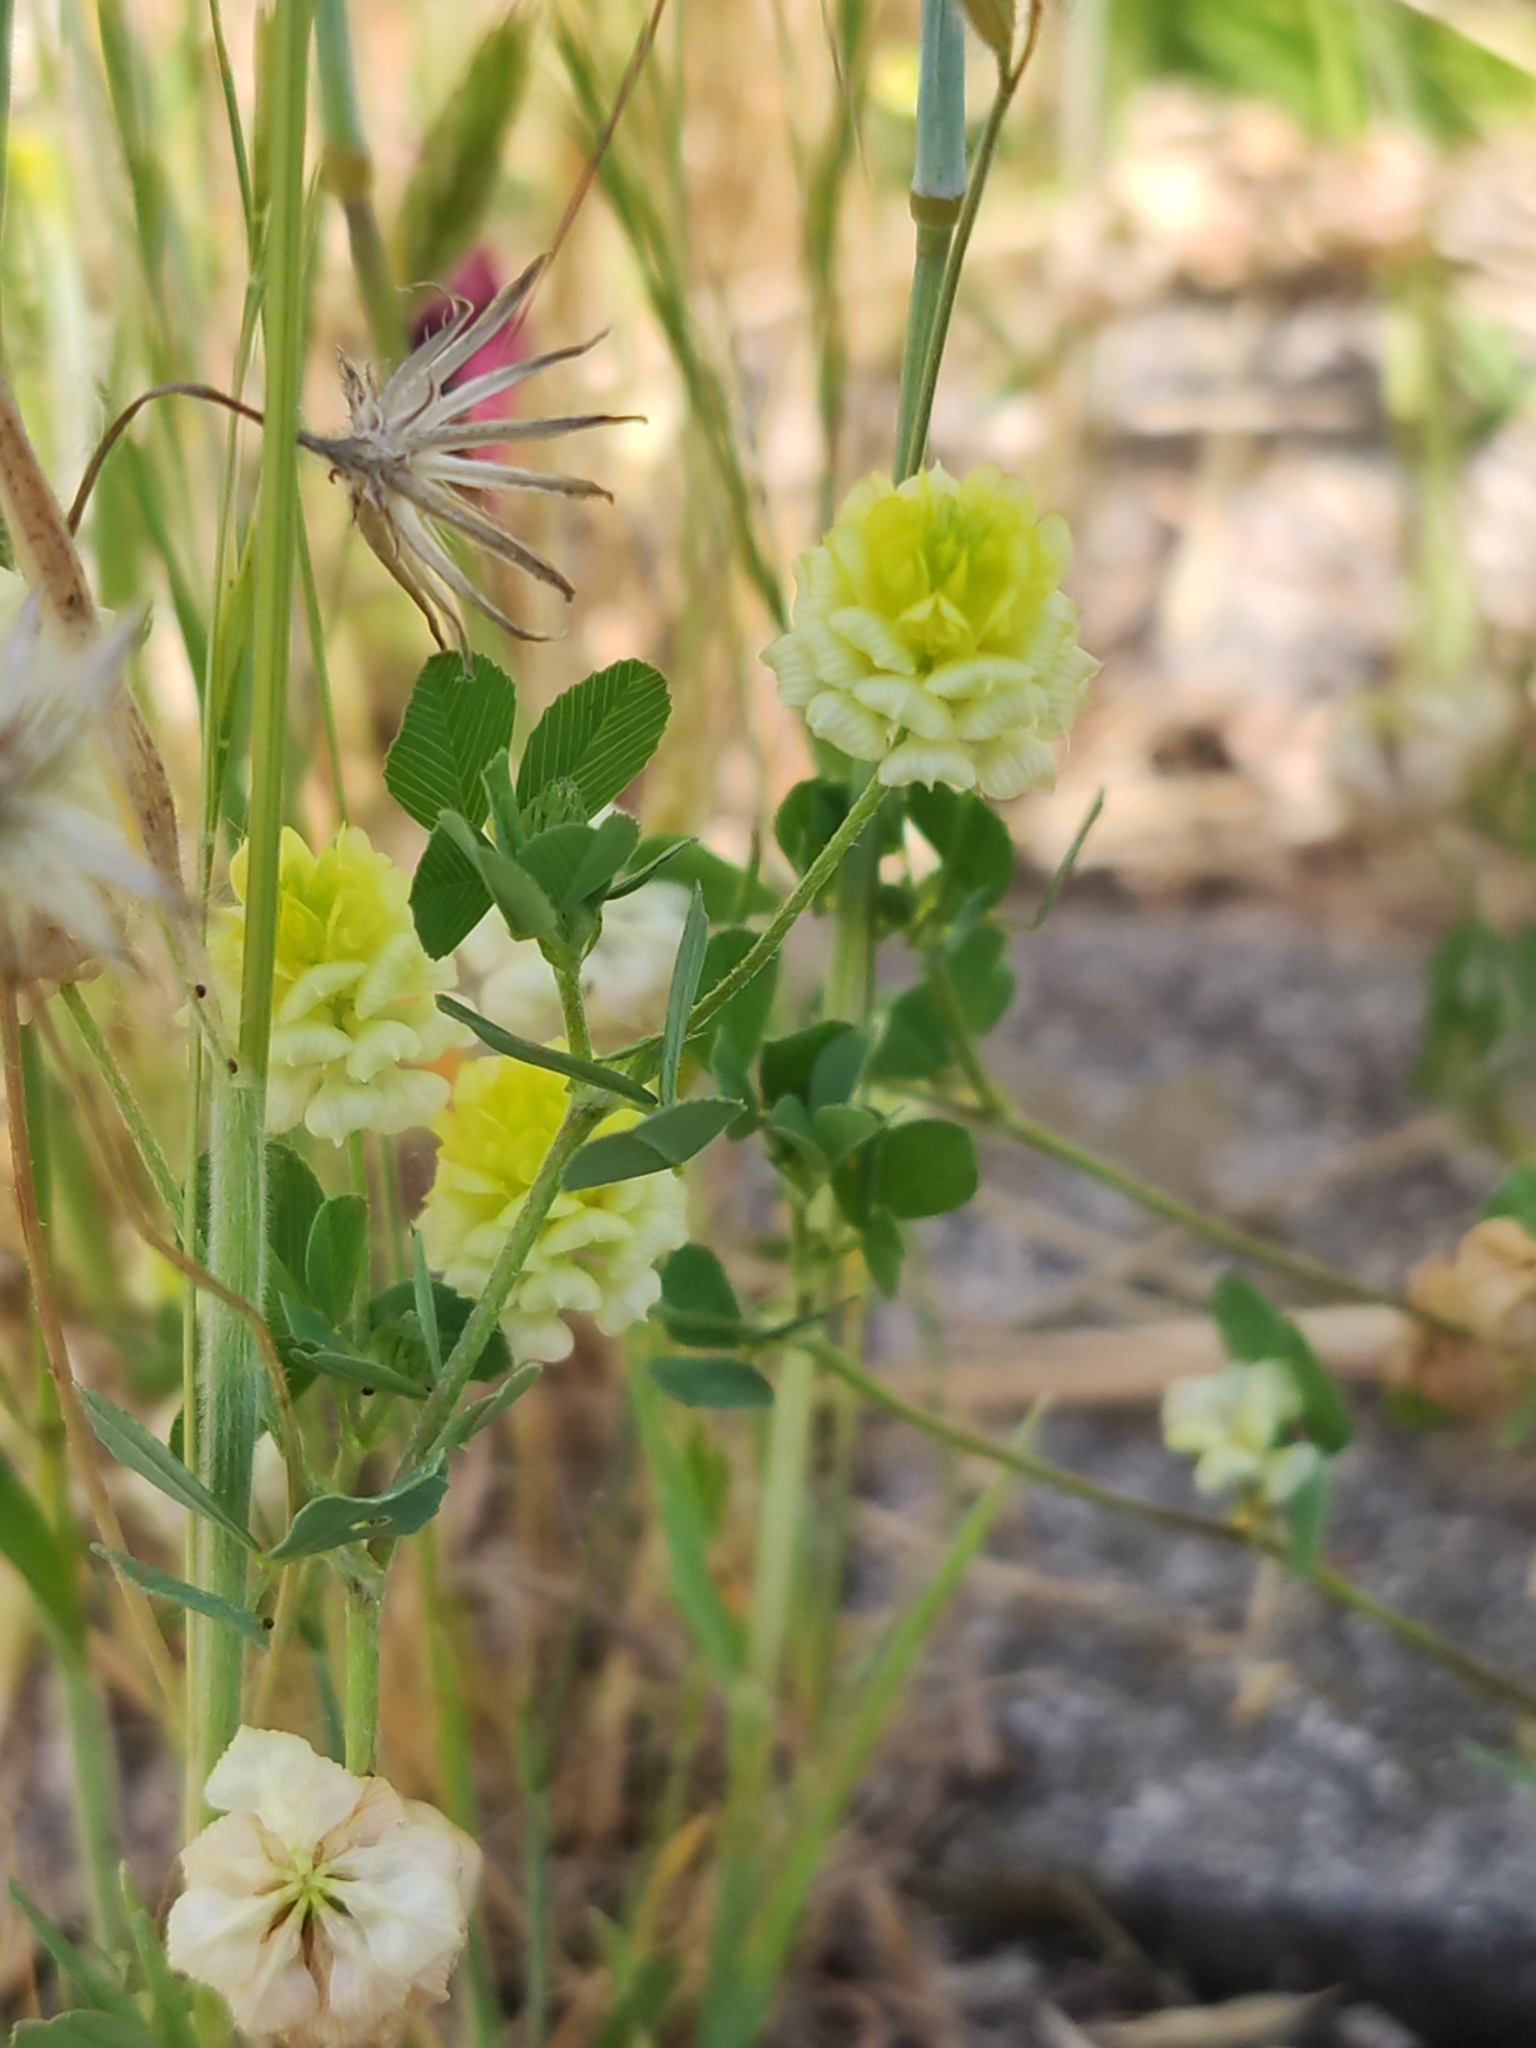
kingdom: Plantae
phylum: Tracheophyta
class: Magnoliopsida
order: Fabales
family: Fabaceae
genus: Trifolium
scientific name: Trifolium campestre
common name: Field clover
